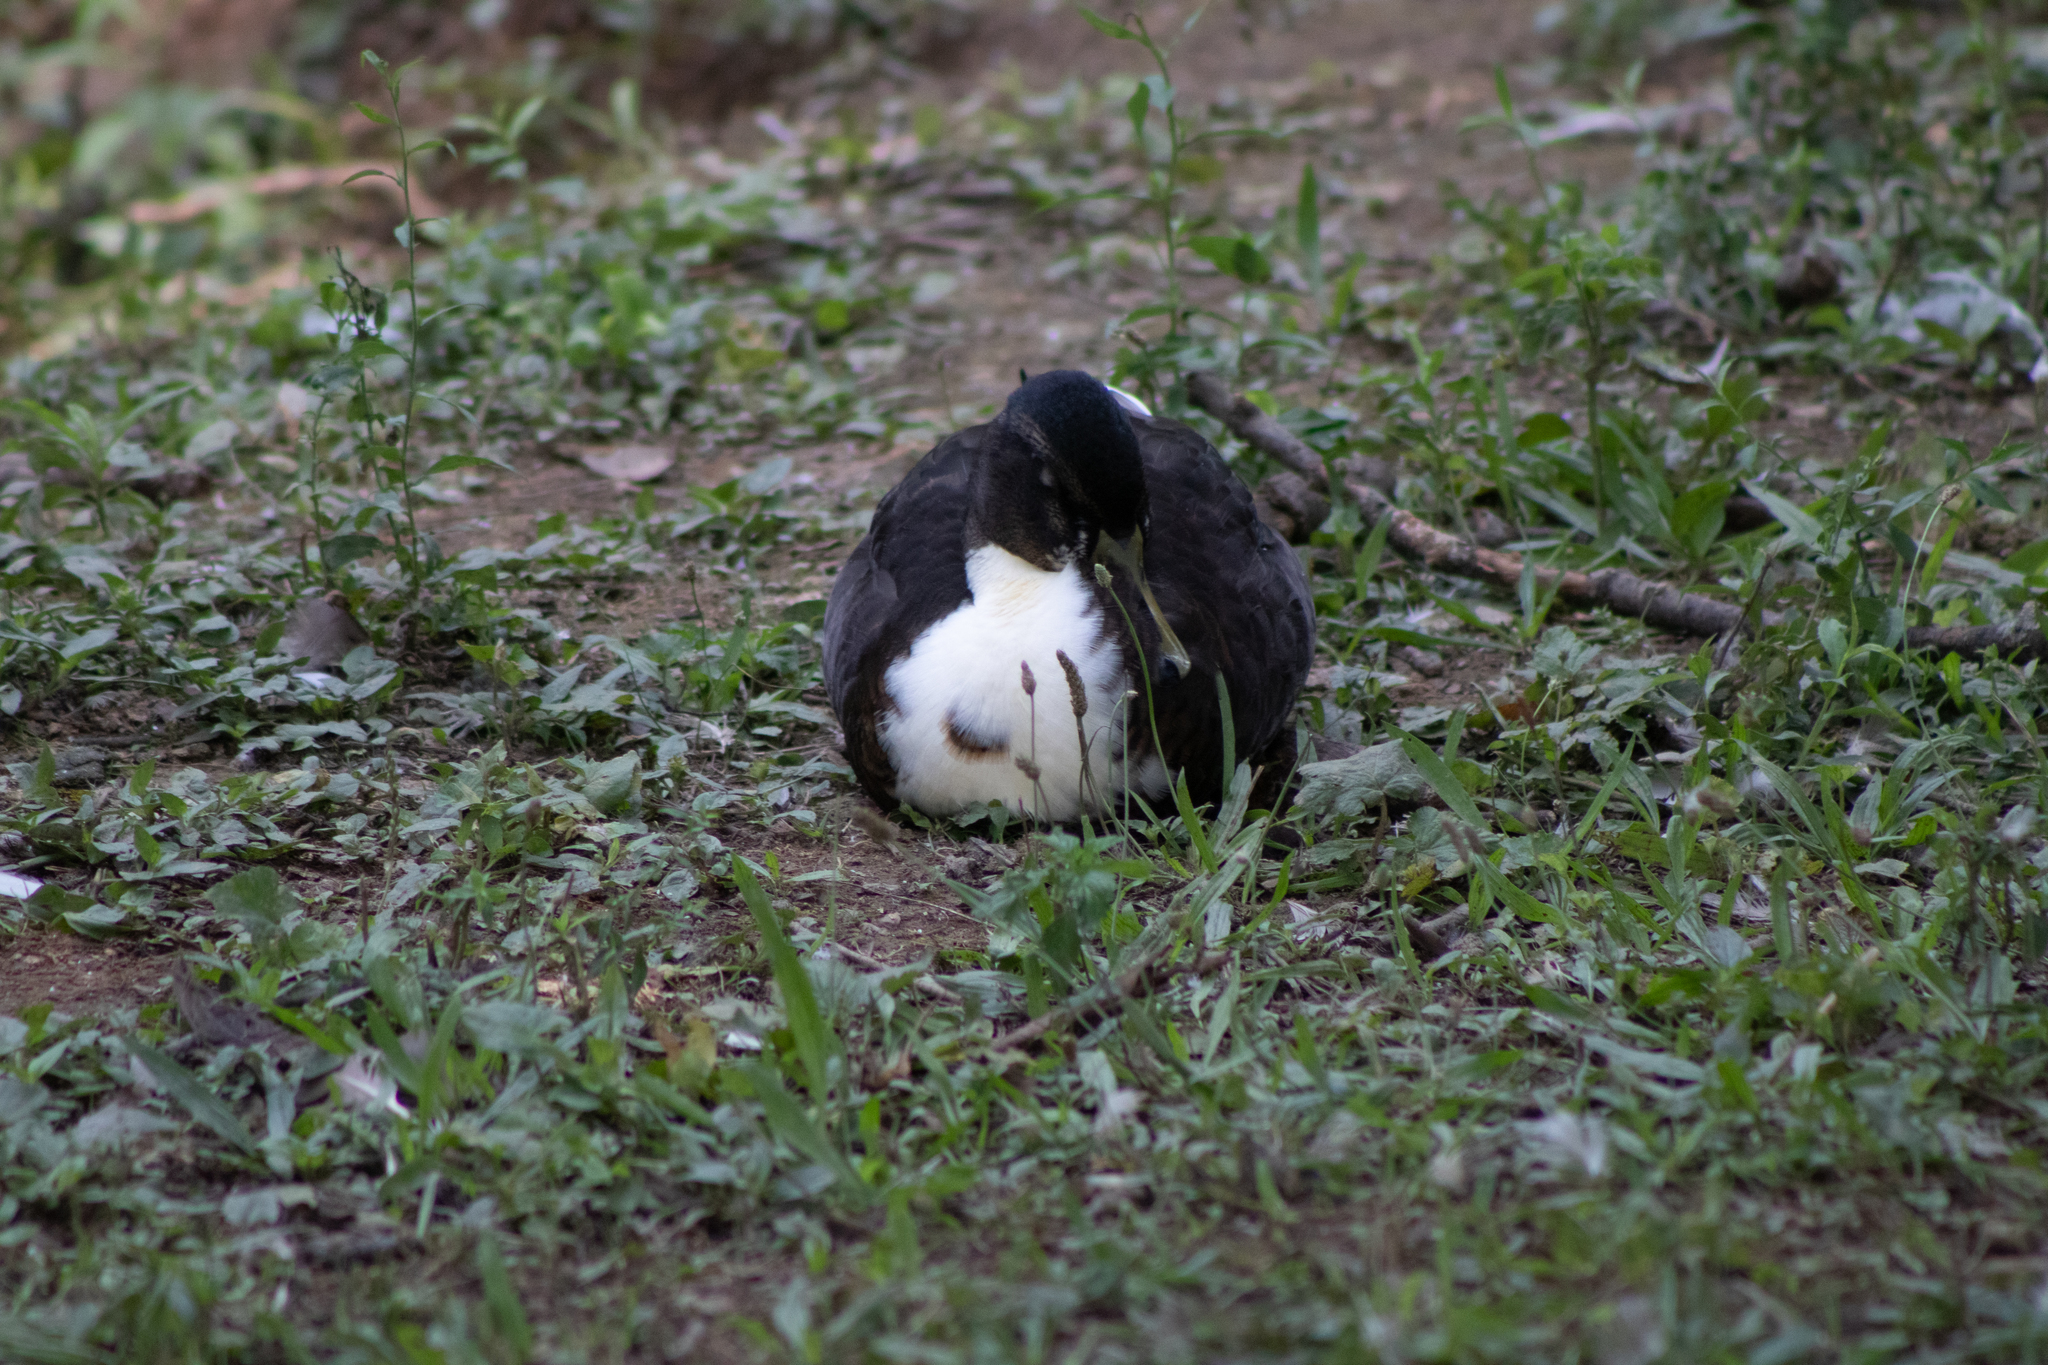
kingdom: Animalia
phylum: Chordata
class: Aves
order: Anseriformes
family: Anatidae
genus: Anas
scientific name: Anas platyrhynchos
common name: Mallard
